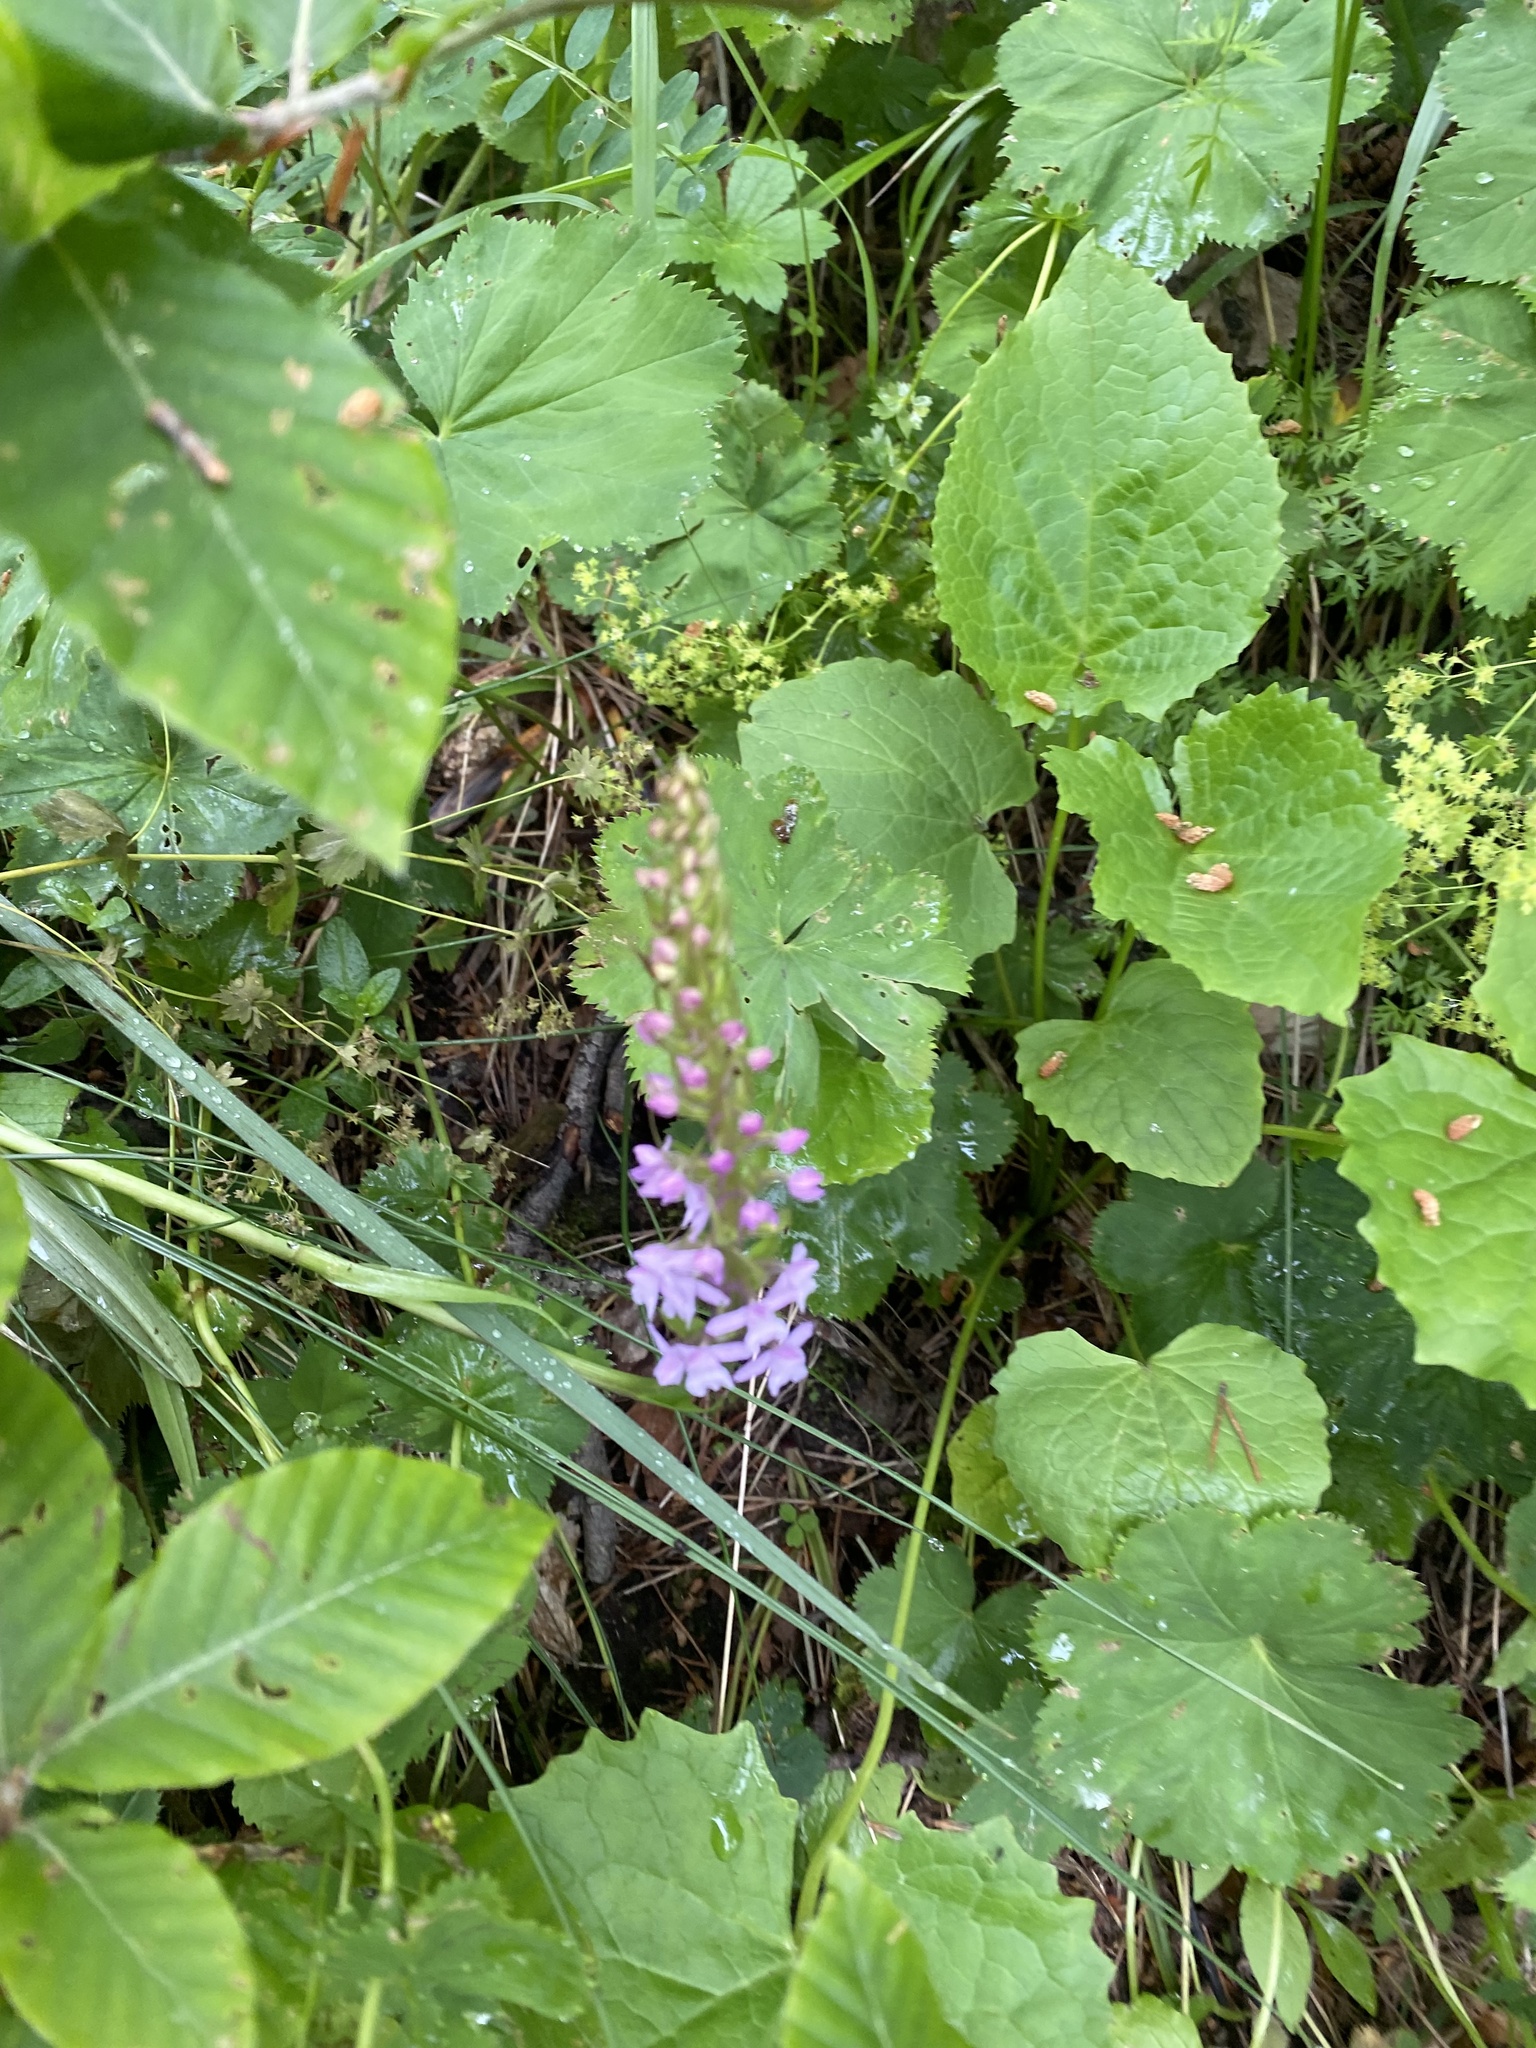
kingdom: Plantae
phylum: Tracheophyta
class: Liliopsida
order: Asparagales
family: Orchidaceae
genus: Gymnadenia
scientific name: Gymnadenia conopsea
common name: Fragrant orchid
